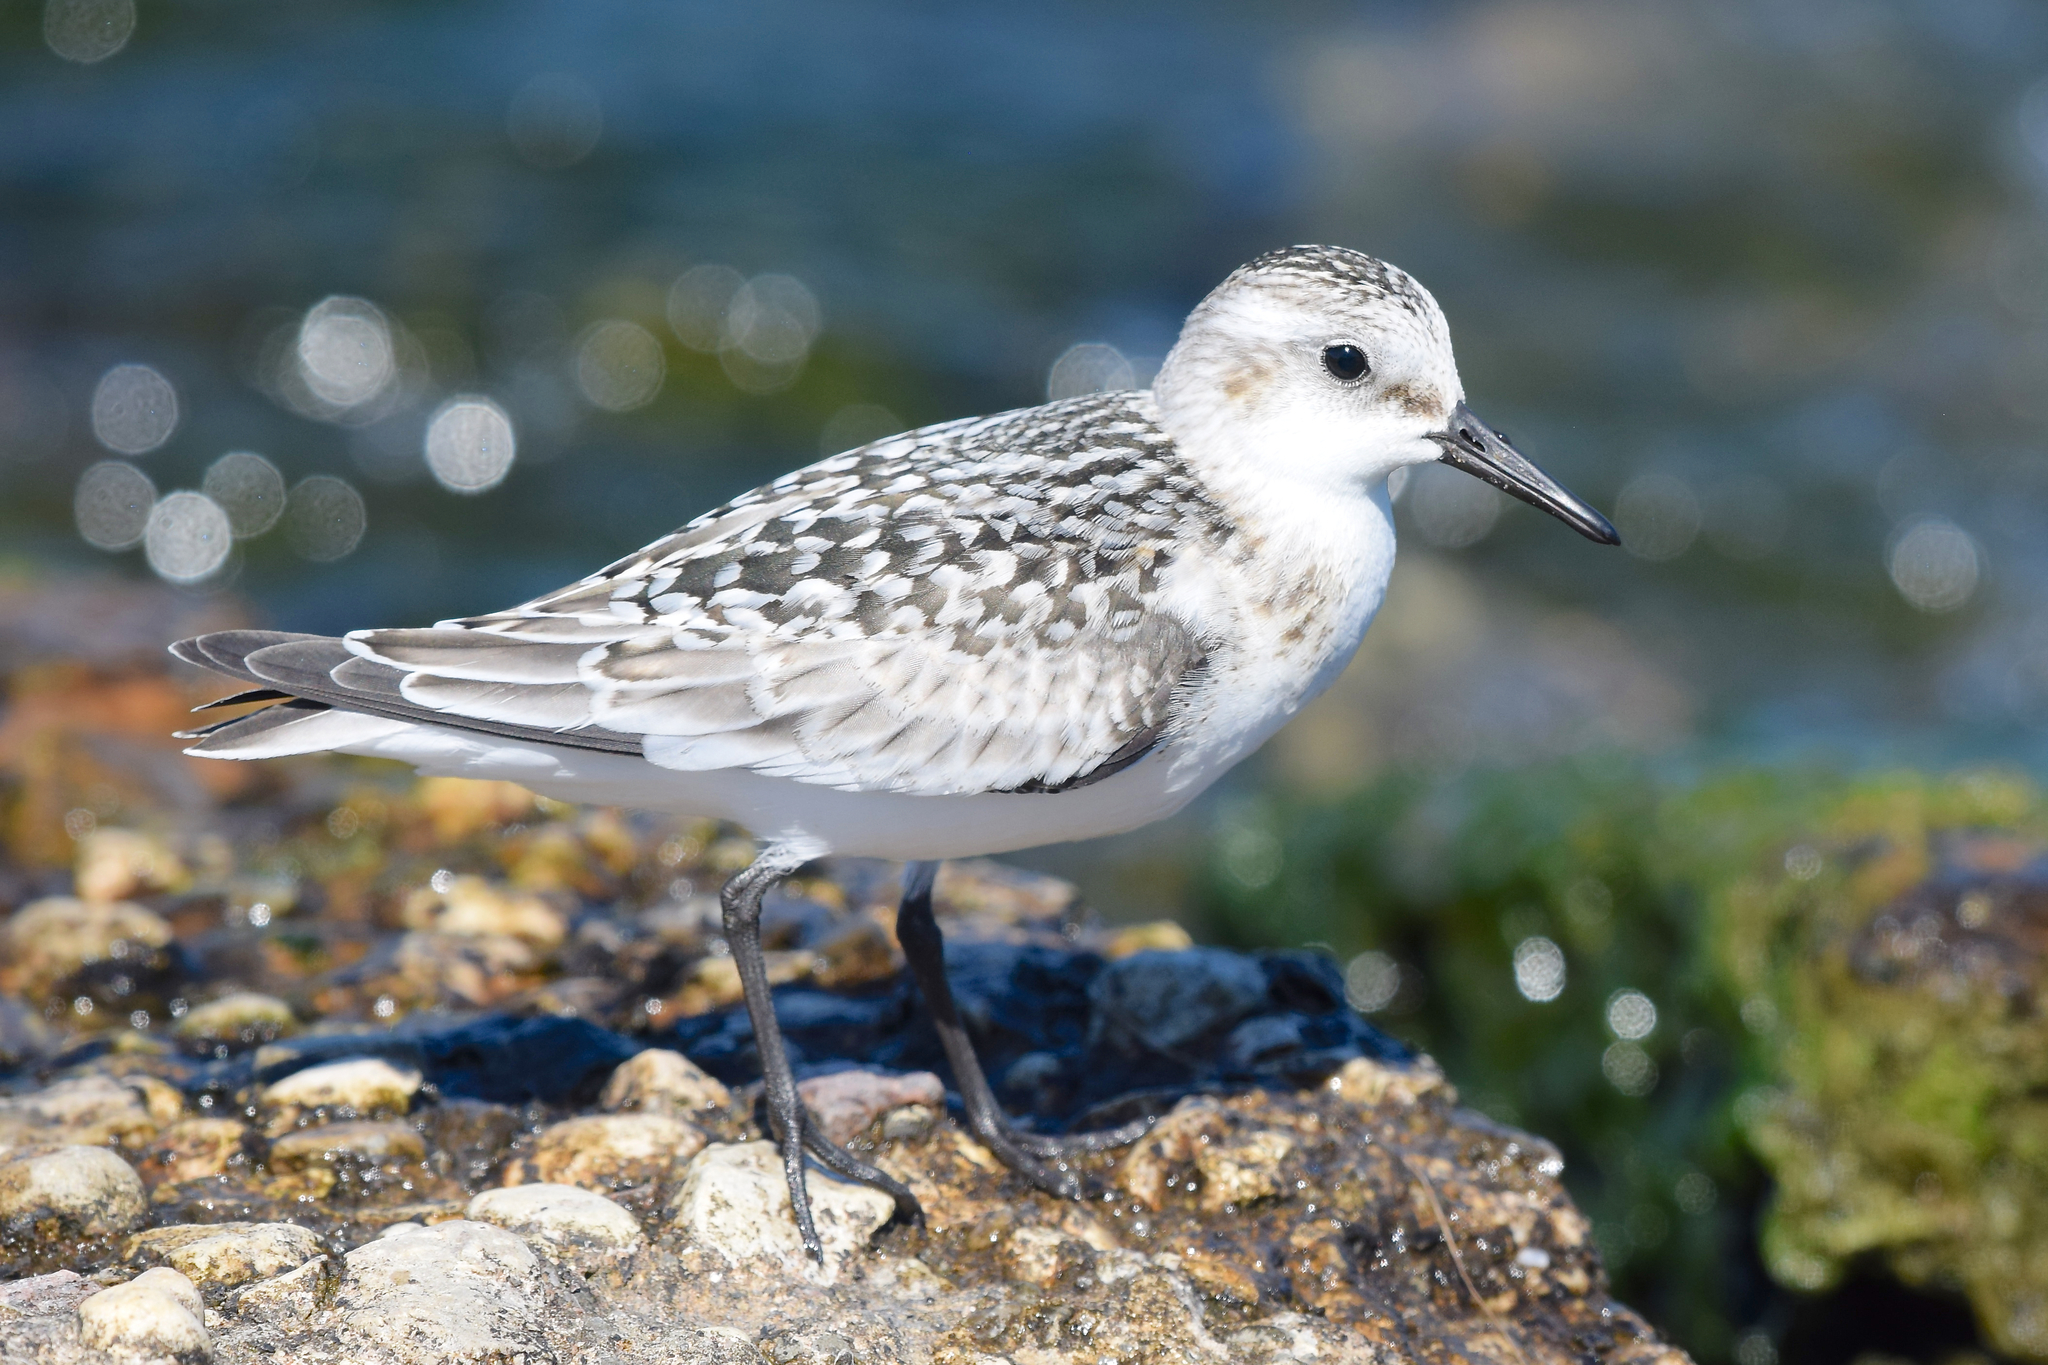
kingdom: Animalia
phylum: Chordata
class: Aves
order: Charadriiformes
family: Scolopacidae
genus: Calidris
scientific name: Calidris alba
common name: Sanderling
